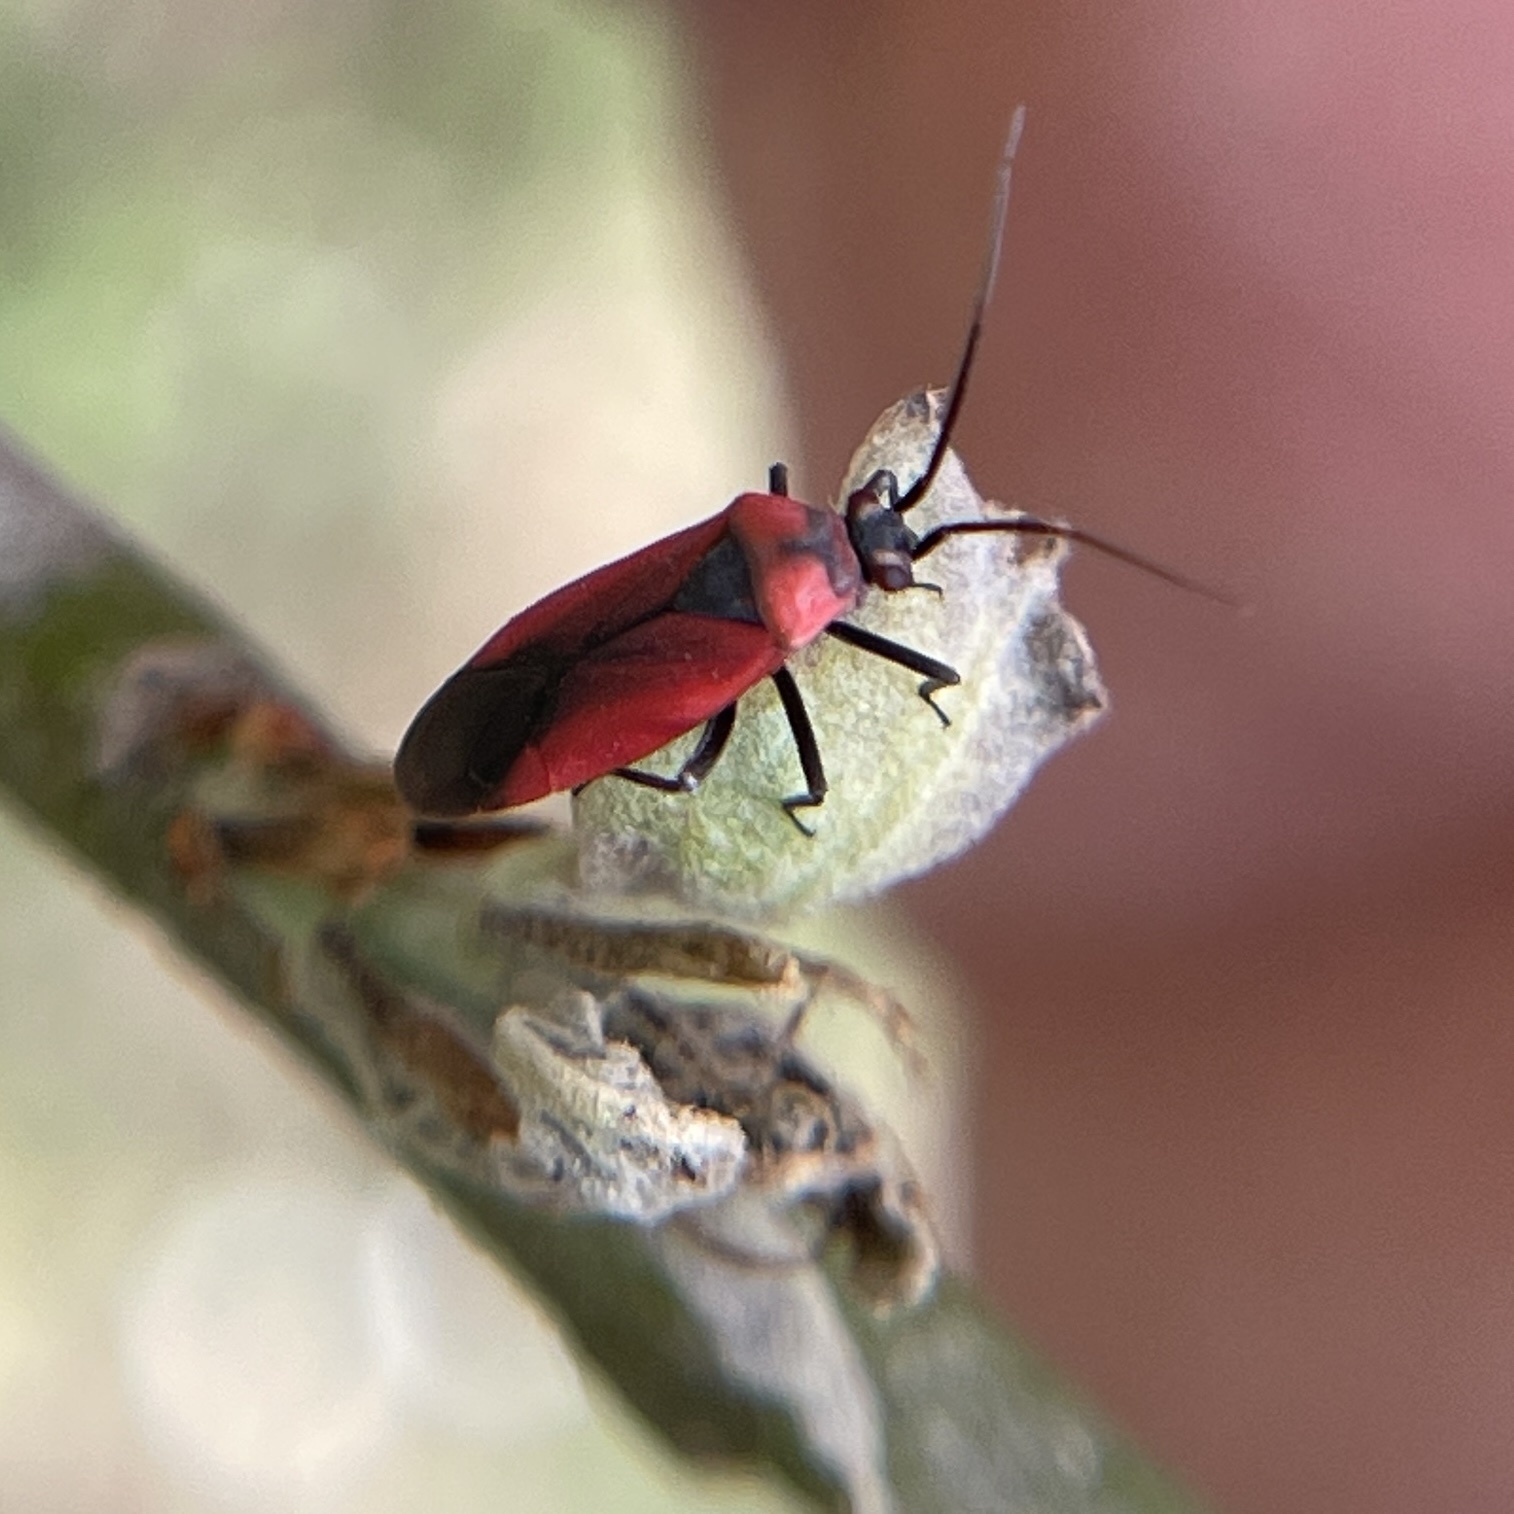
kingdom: Animalia
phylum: Arthropoda
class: Insecta
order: Hemiptera
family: Miridae
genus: Lopidea
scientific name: Lopidea major
